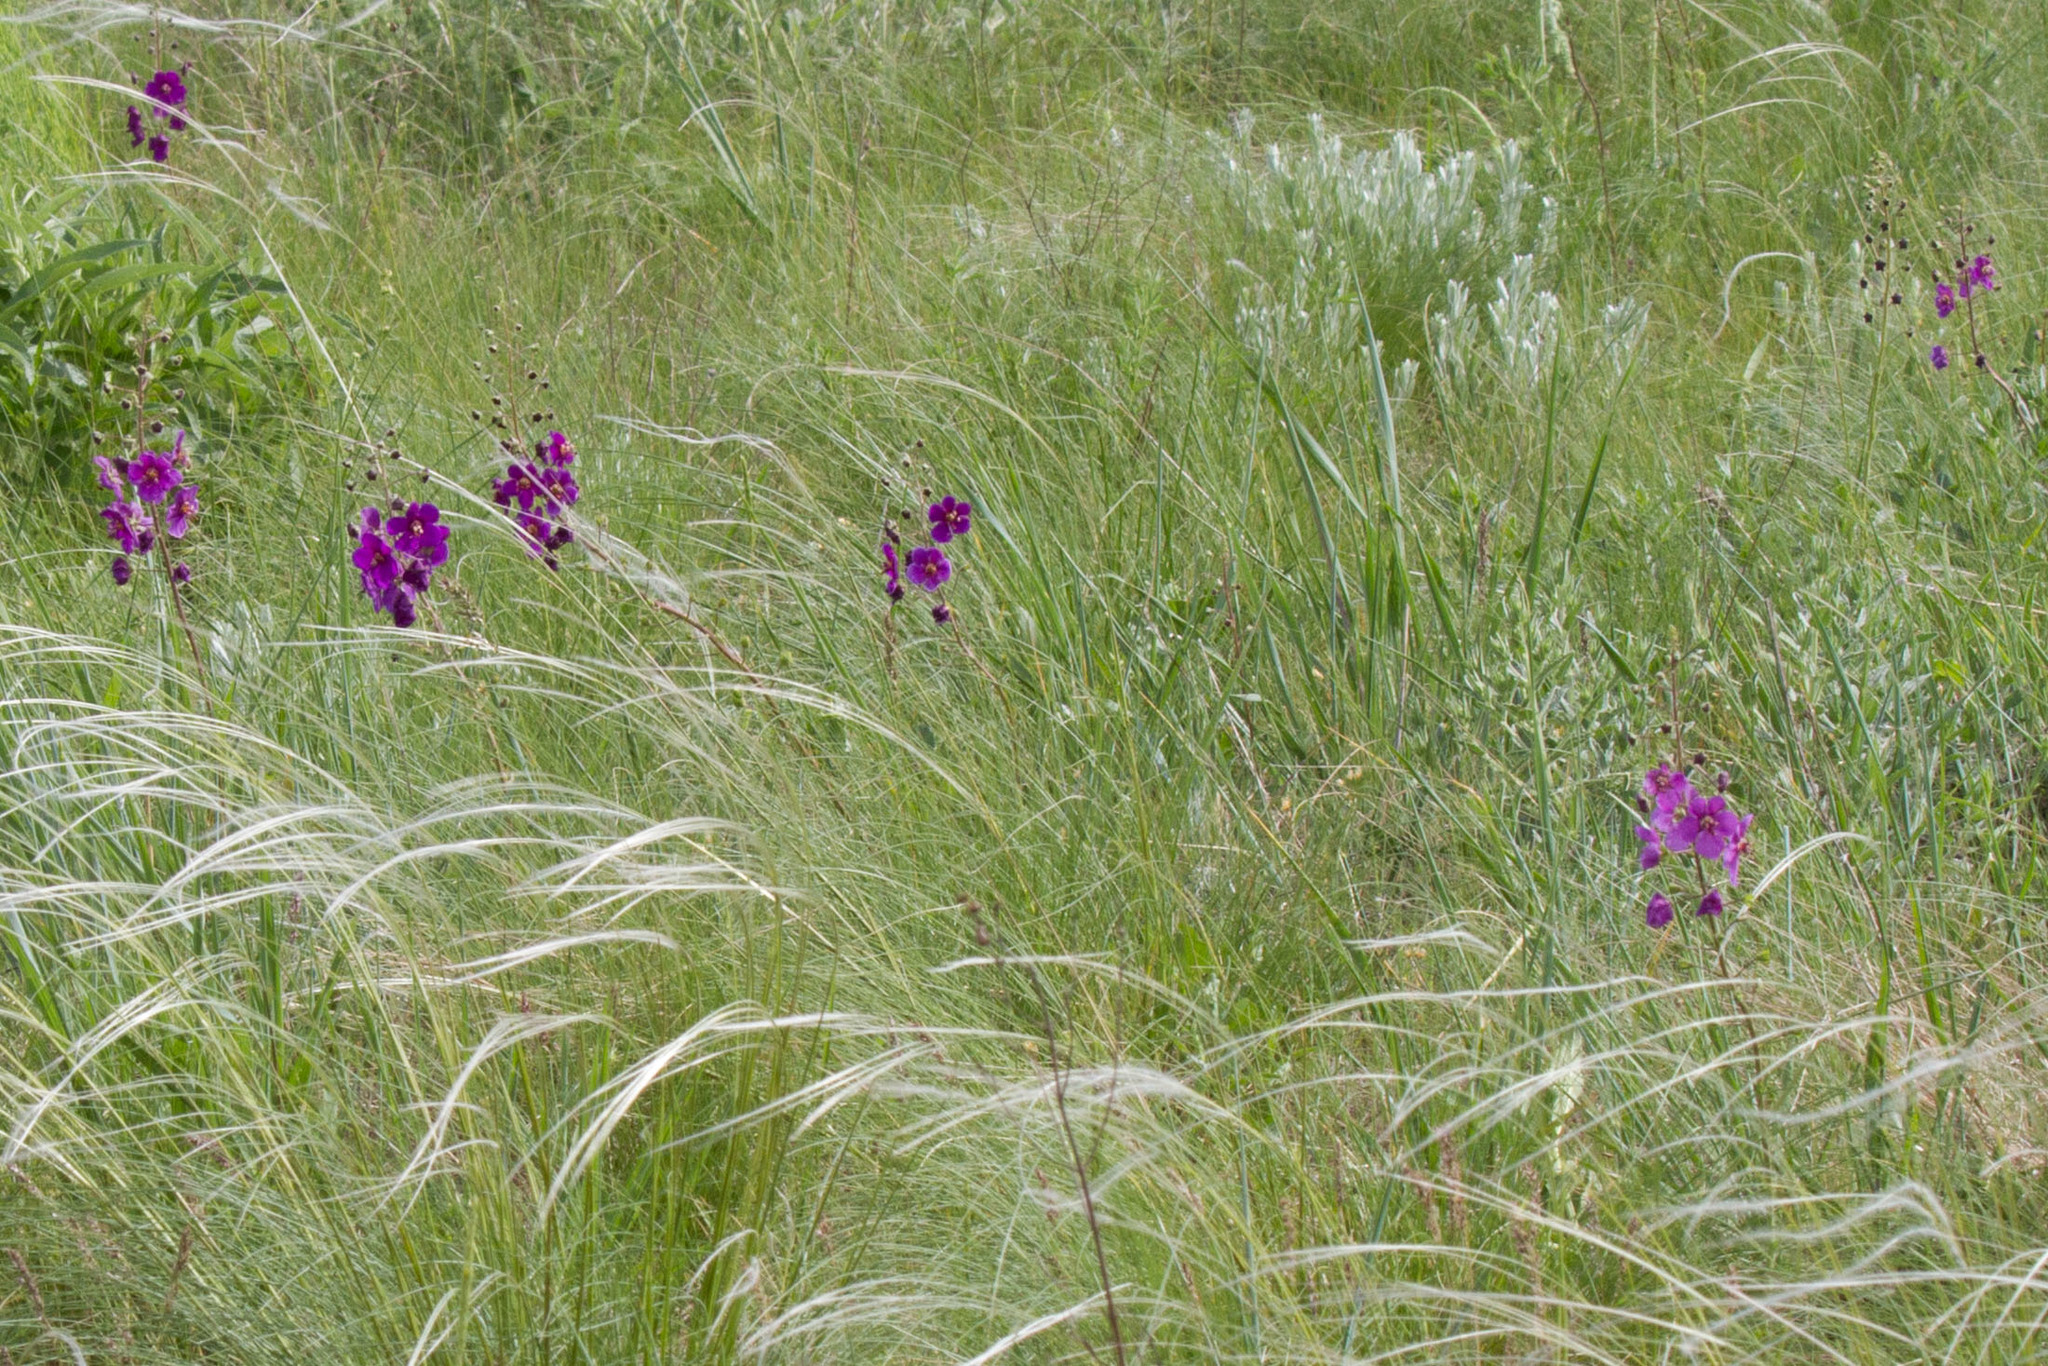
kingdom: Plantae
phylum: Tracheophyta
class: Magnoliopsida
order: Lamiales
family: Scrophulariaceae
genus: Verbascum
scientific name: Verbascum phoeniceum
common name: Purple mullein
